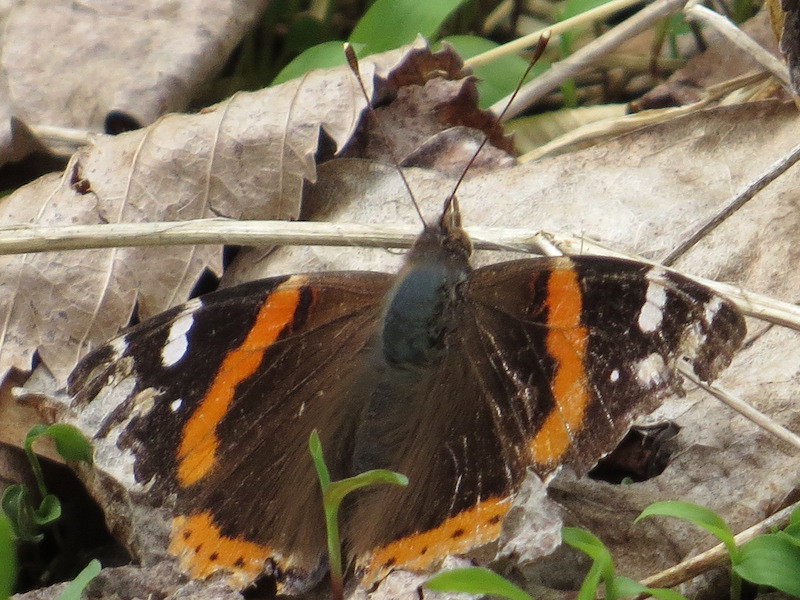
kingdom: Animalia
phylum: Arthropoda
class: Insecta
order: Lepidoptera
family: Nymphalidae
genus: Vanessa
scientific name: Vanessa atalanta
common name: Red admiral
